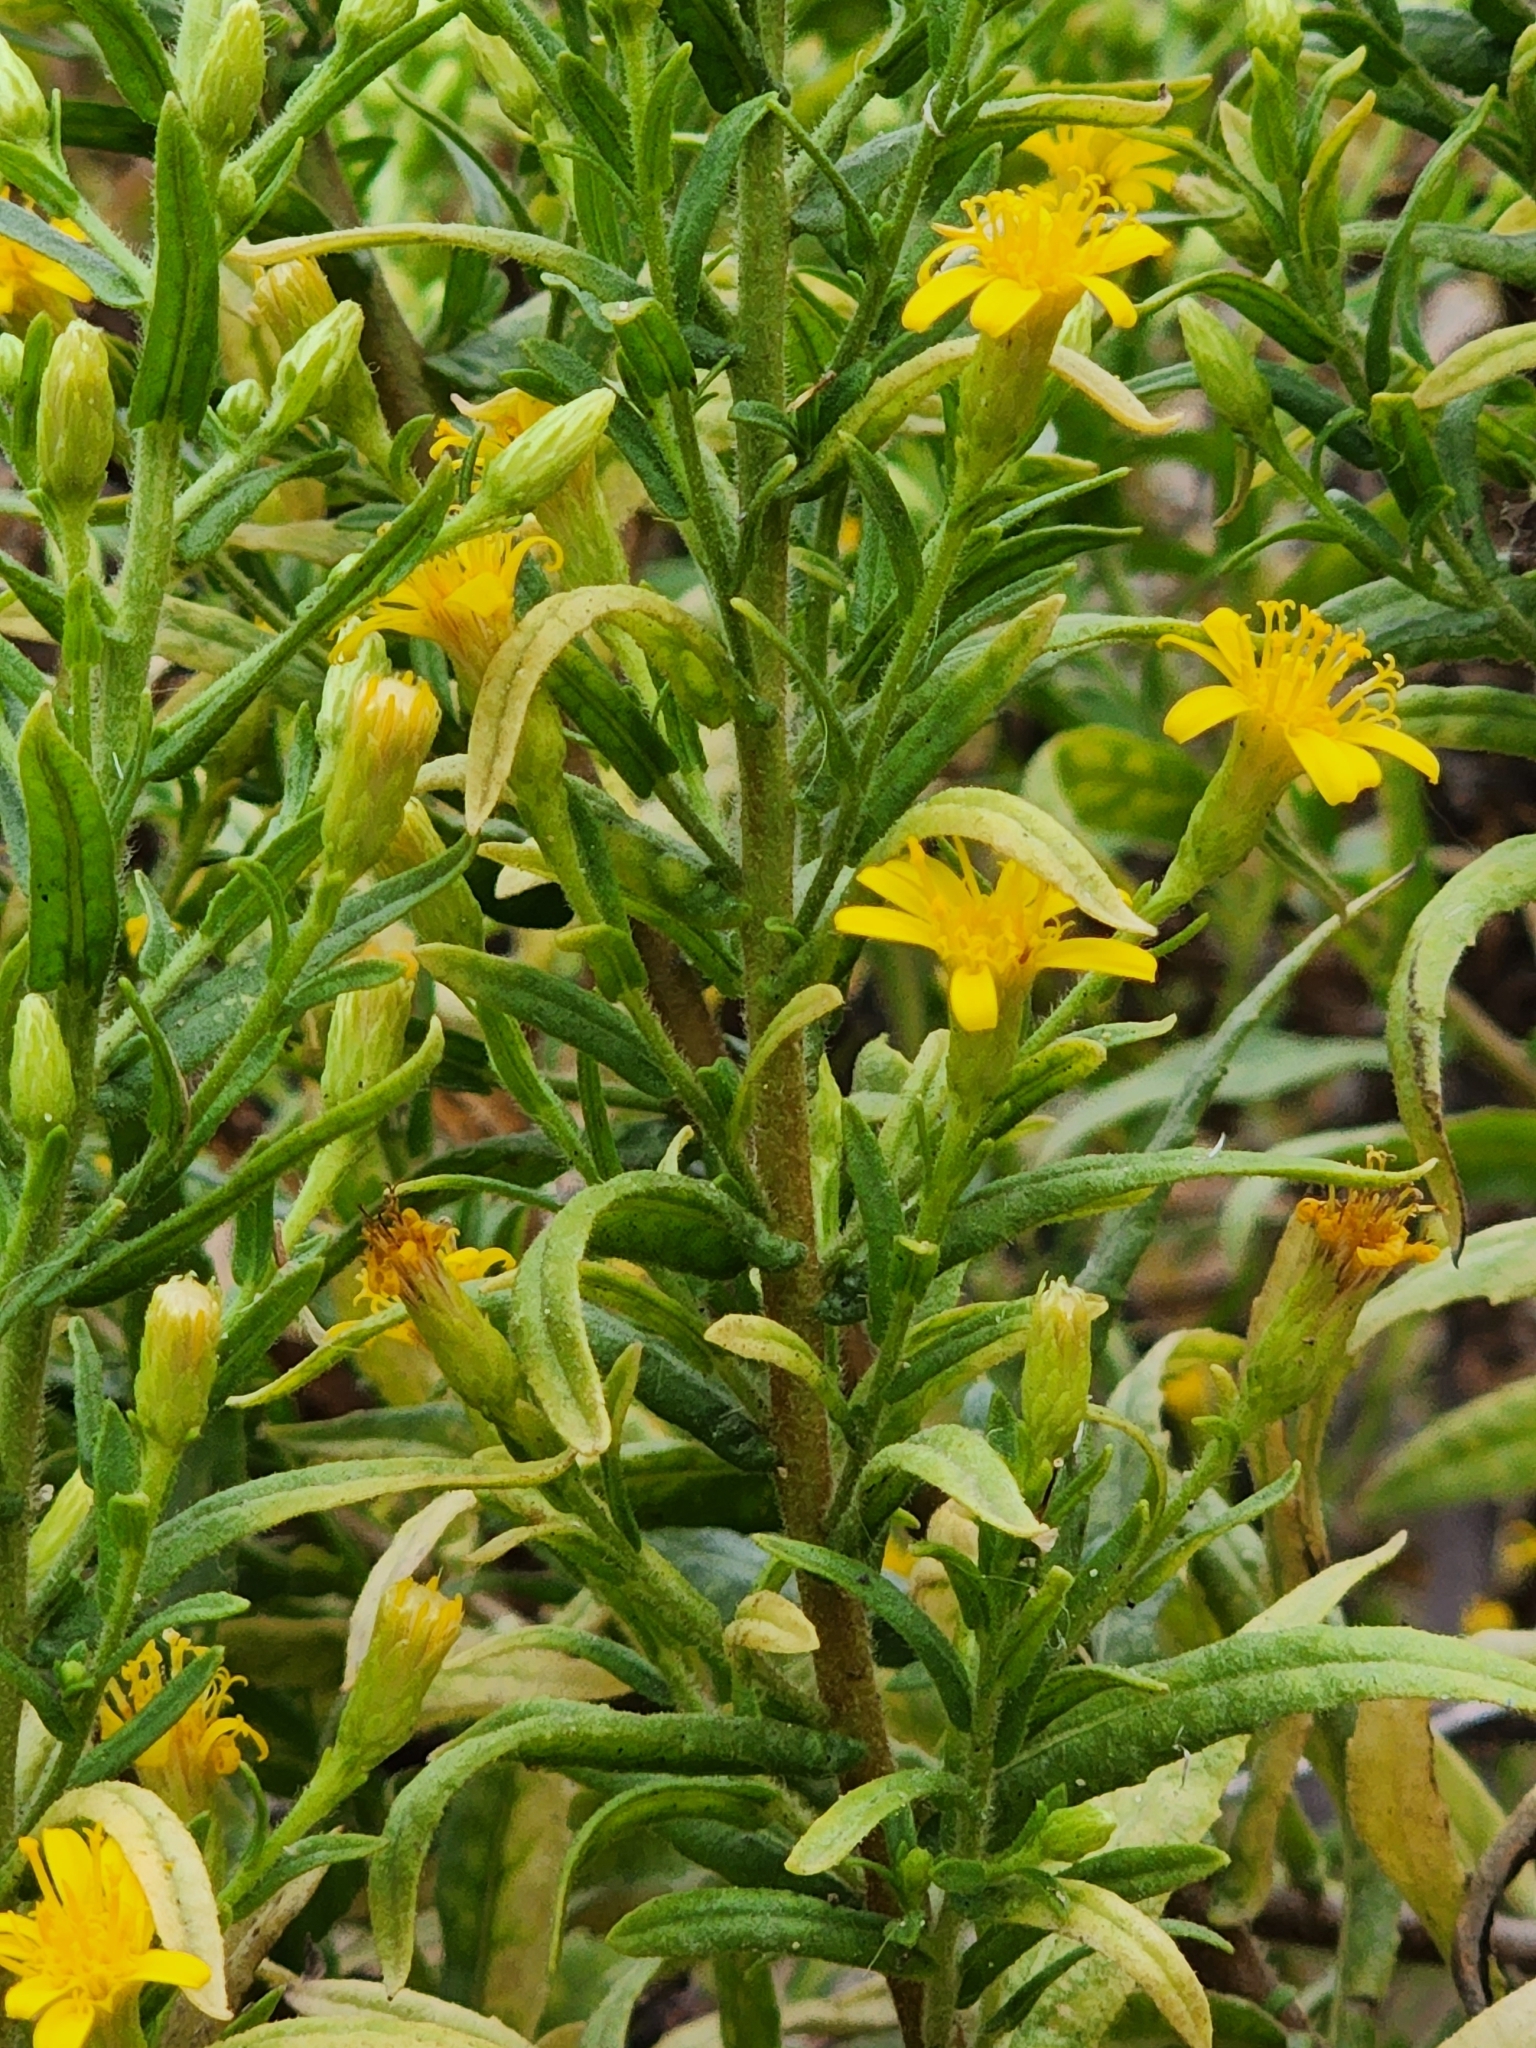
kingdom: Plantae
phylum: Tracheophyta
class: Magnoliopsida
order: Asterales
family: Asteraceae
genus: Dittrichia
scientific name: Dittrichia viscosa
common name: Woody fleabane
